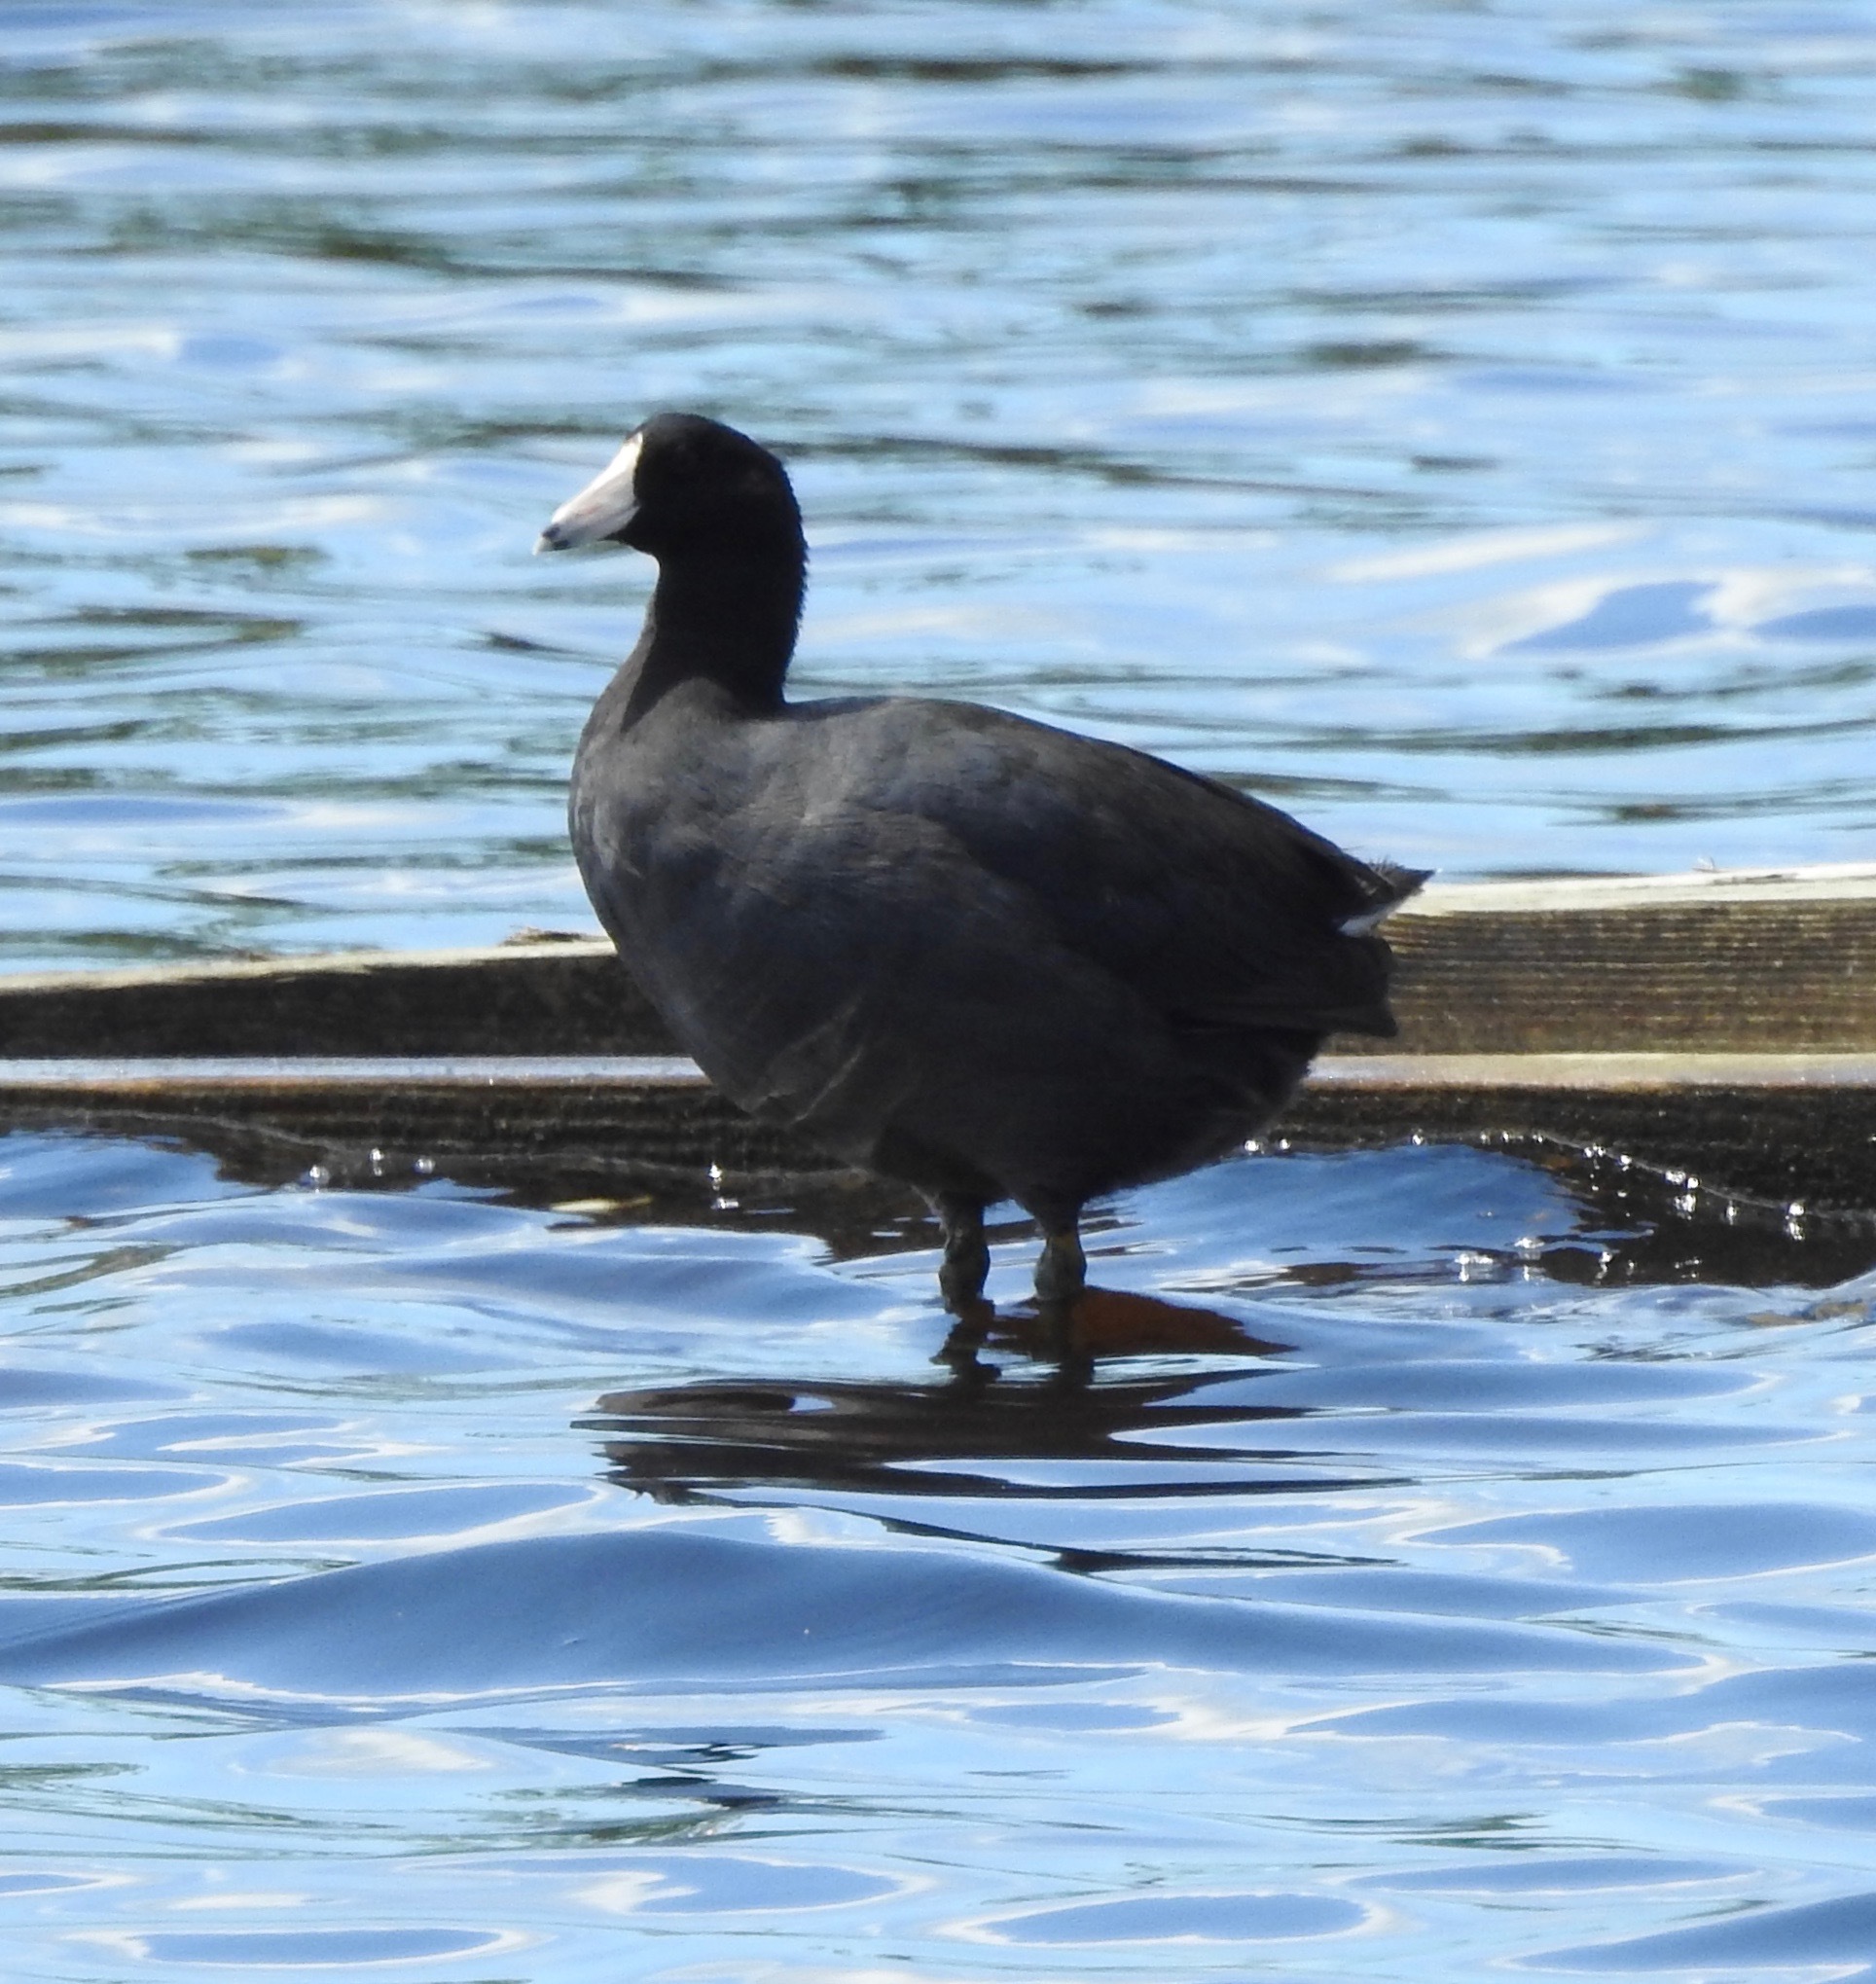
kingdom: Animalia
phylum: Chordata
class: Aves
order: Gruiformes
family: Rallidae
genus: Fulica
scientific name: Fulica americana
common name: American coot
